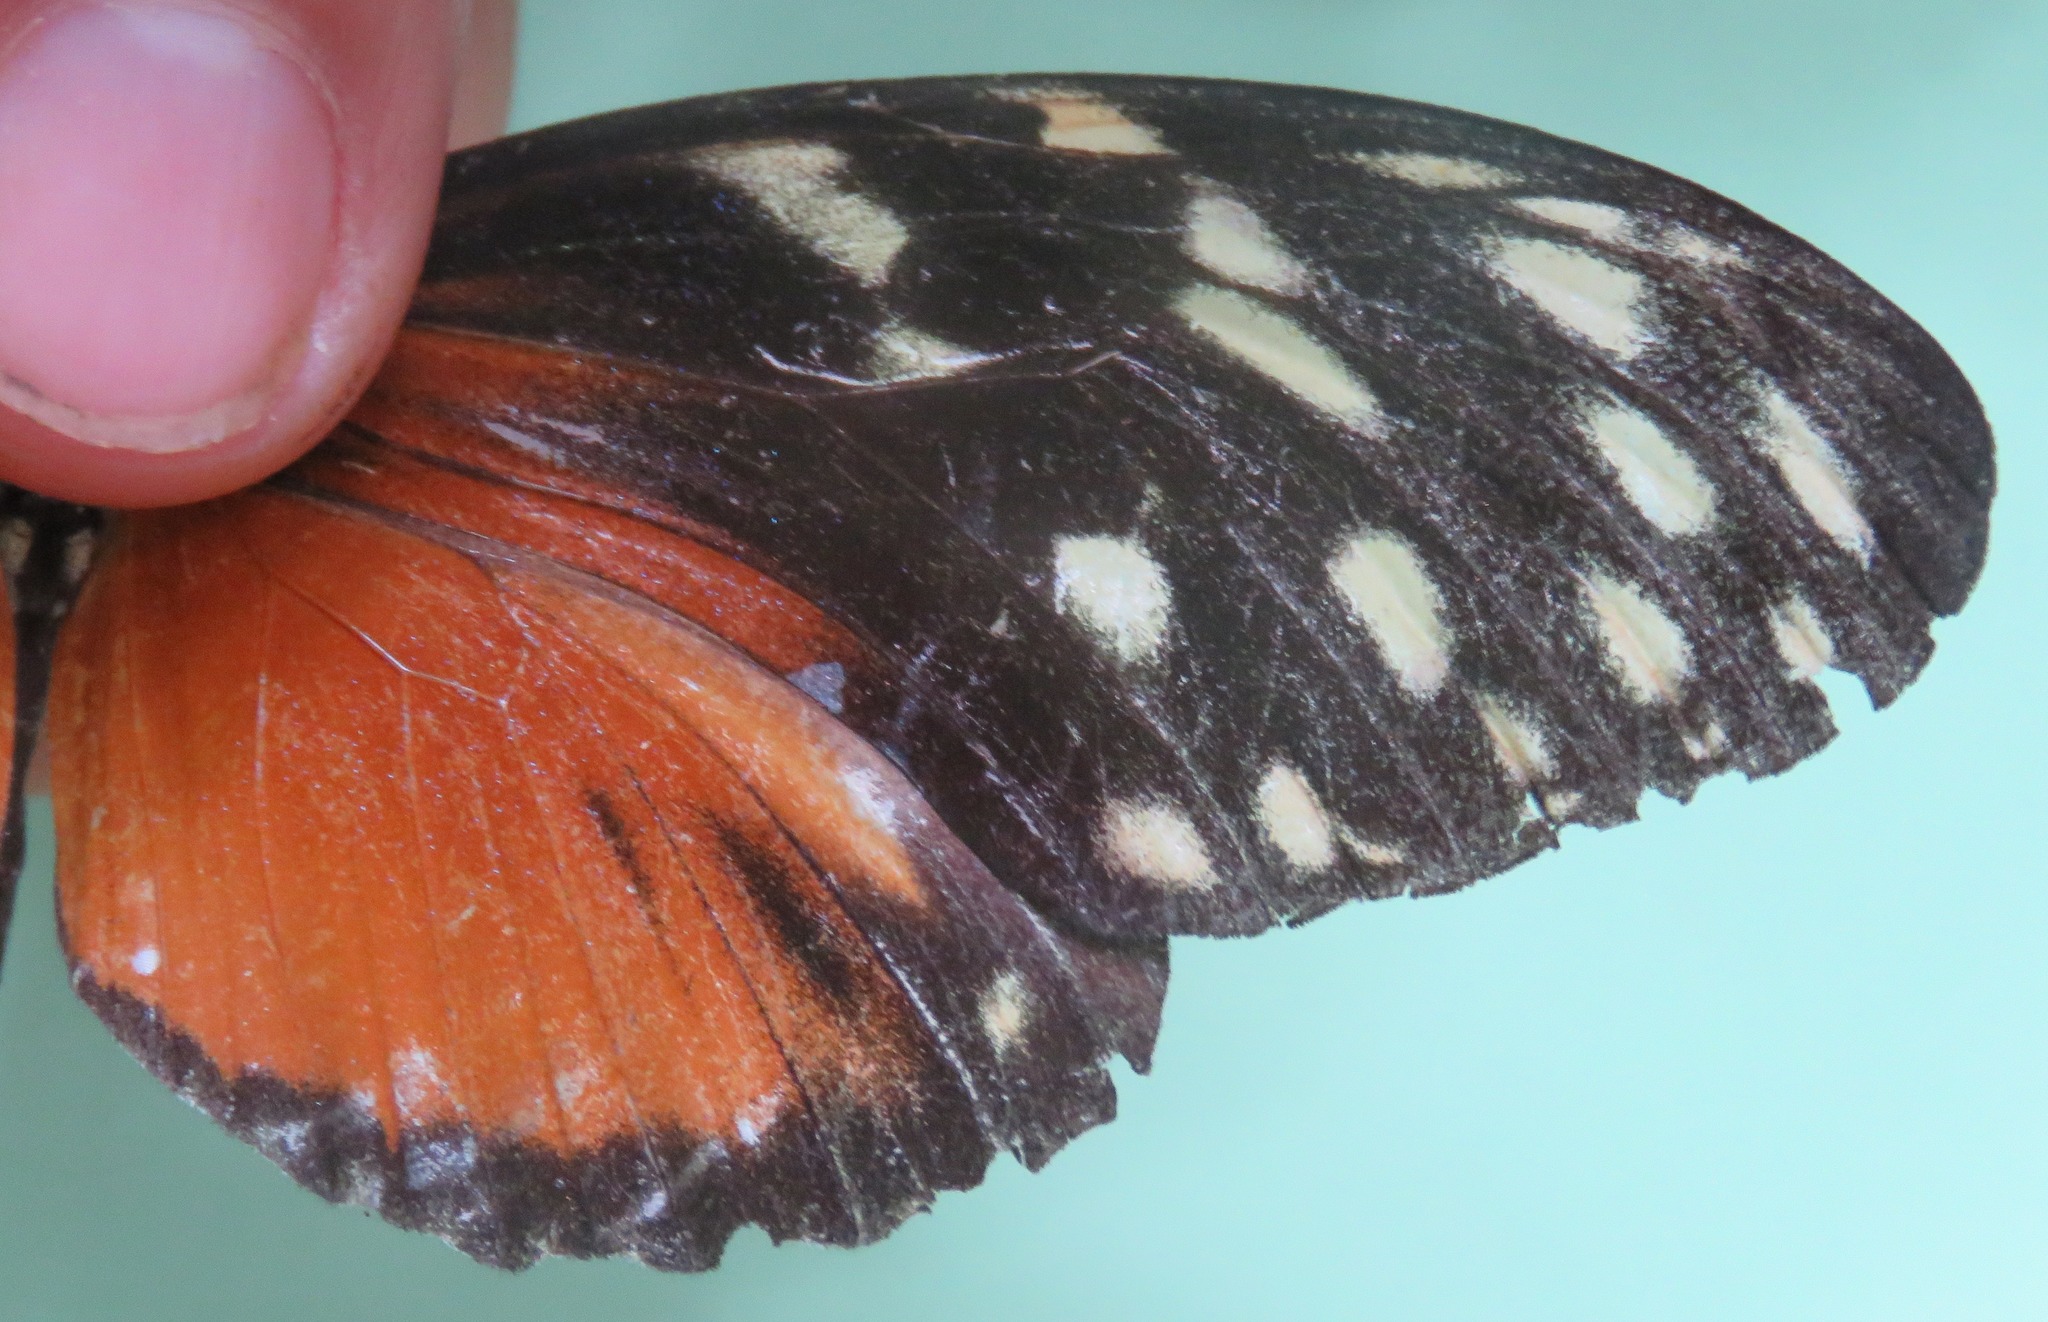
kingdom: Animalia
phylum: Arthropoda
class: Insecta
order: Lepidoptera
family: Nymphalidae
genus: Heliconius
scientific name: Heliconius hecale
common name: Tiger longwing
